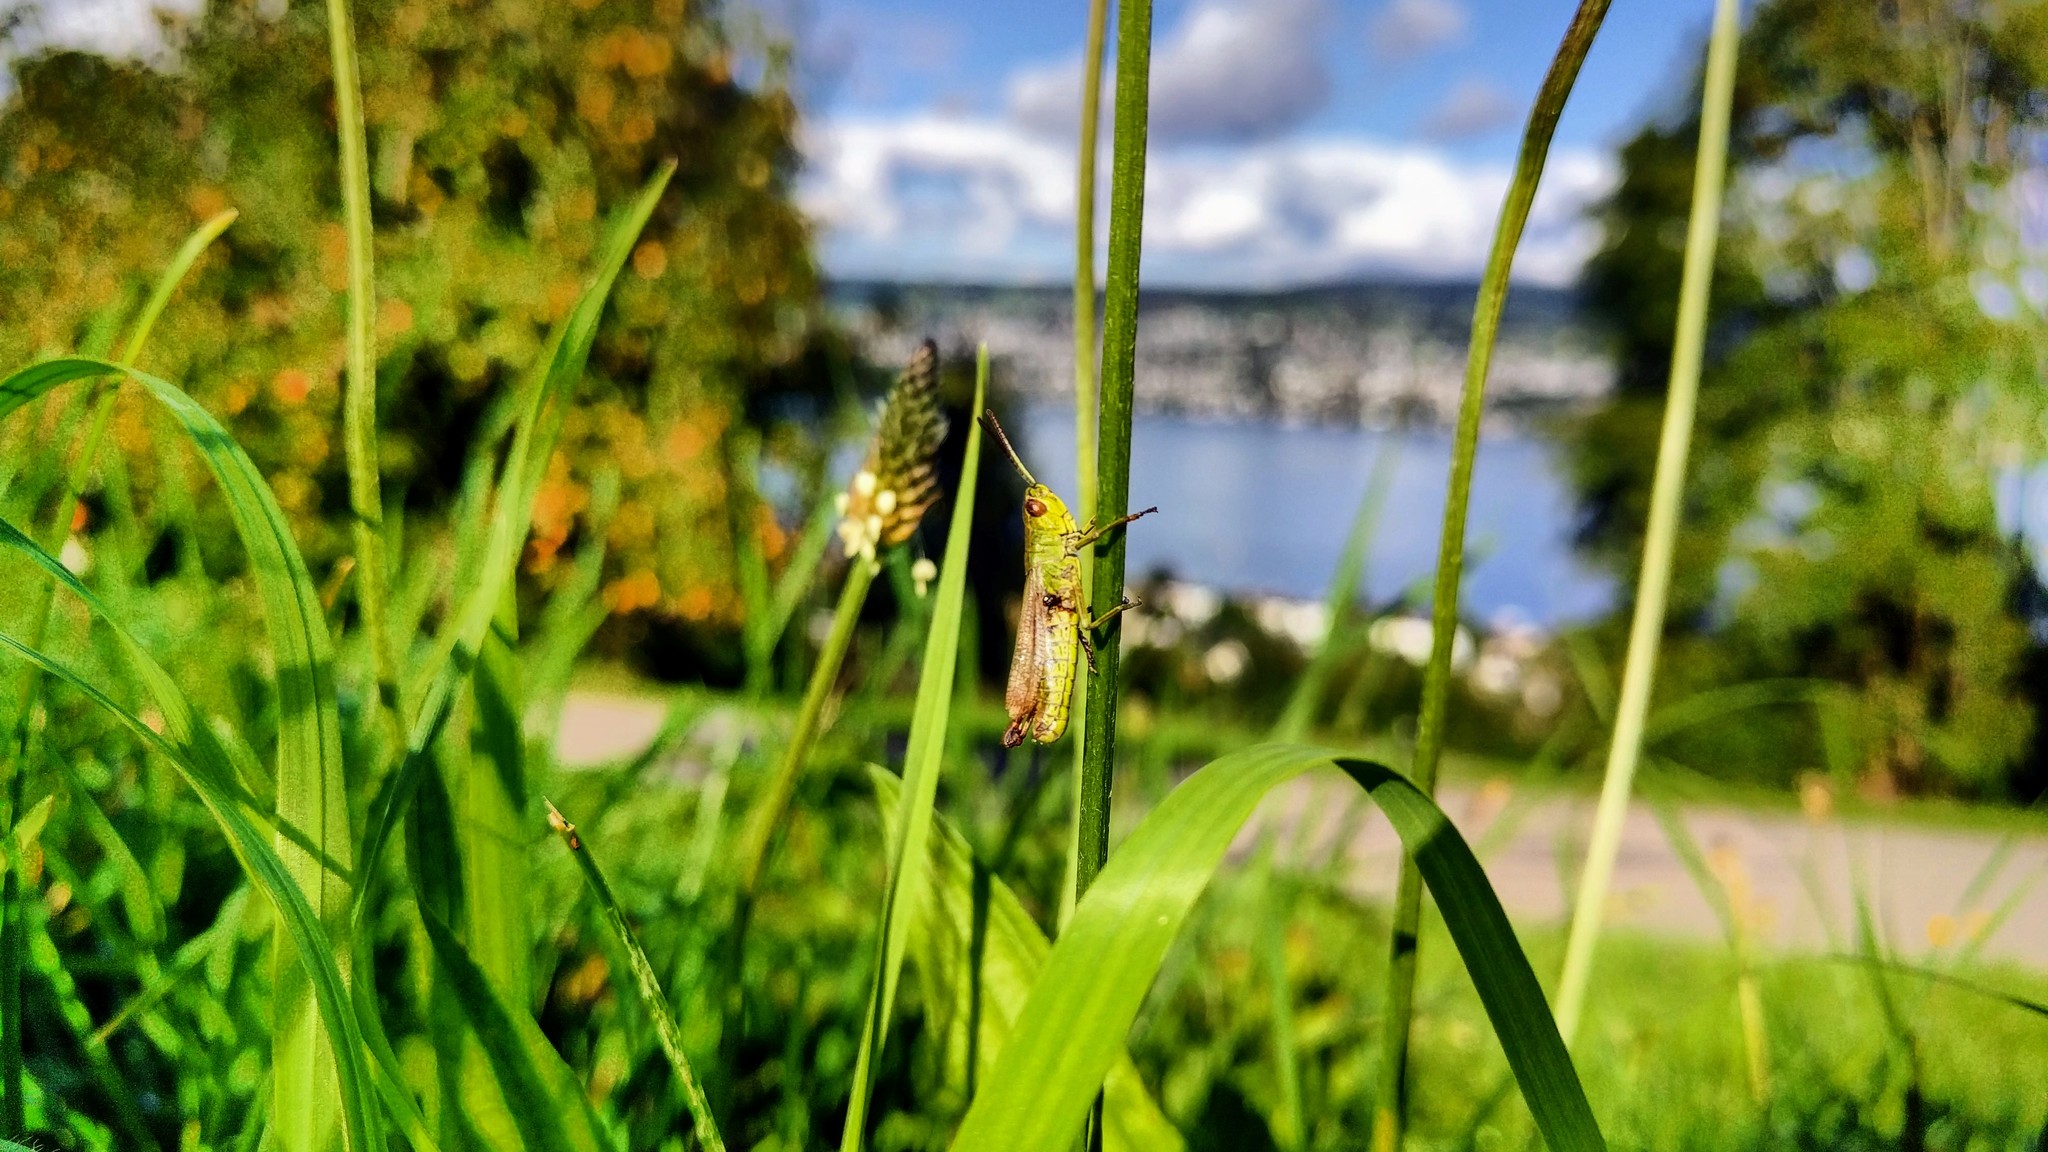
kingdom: Animalia
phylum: Arthropoda
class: Insecta
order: Orthoptera
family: Acrididae
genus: Pseudochorthippus
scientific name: Pseudochorthippus parallelus
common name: Meadow grasshopper
